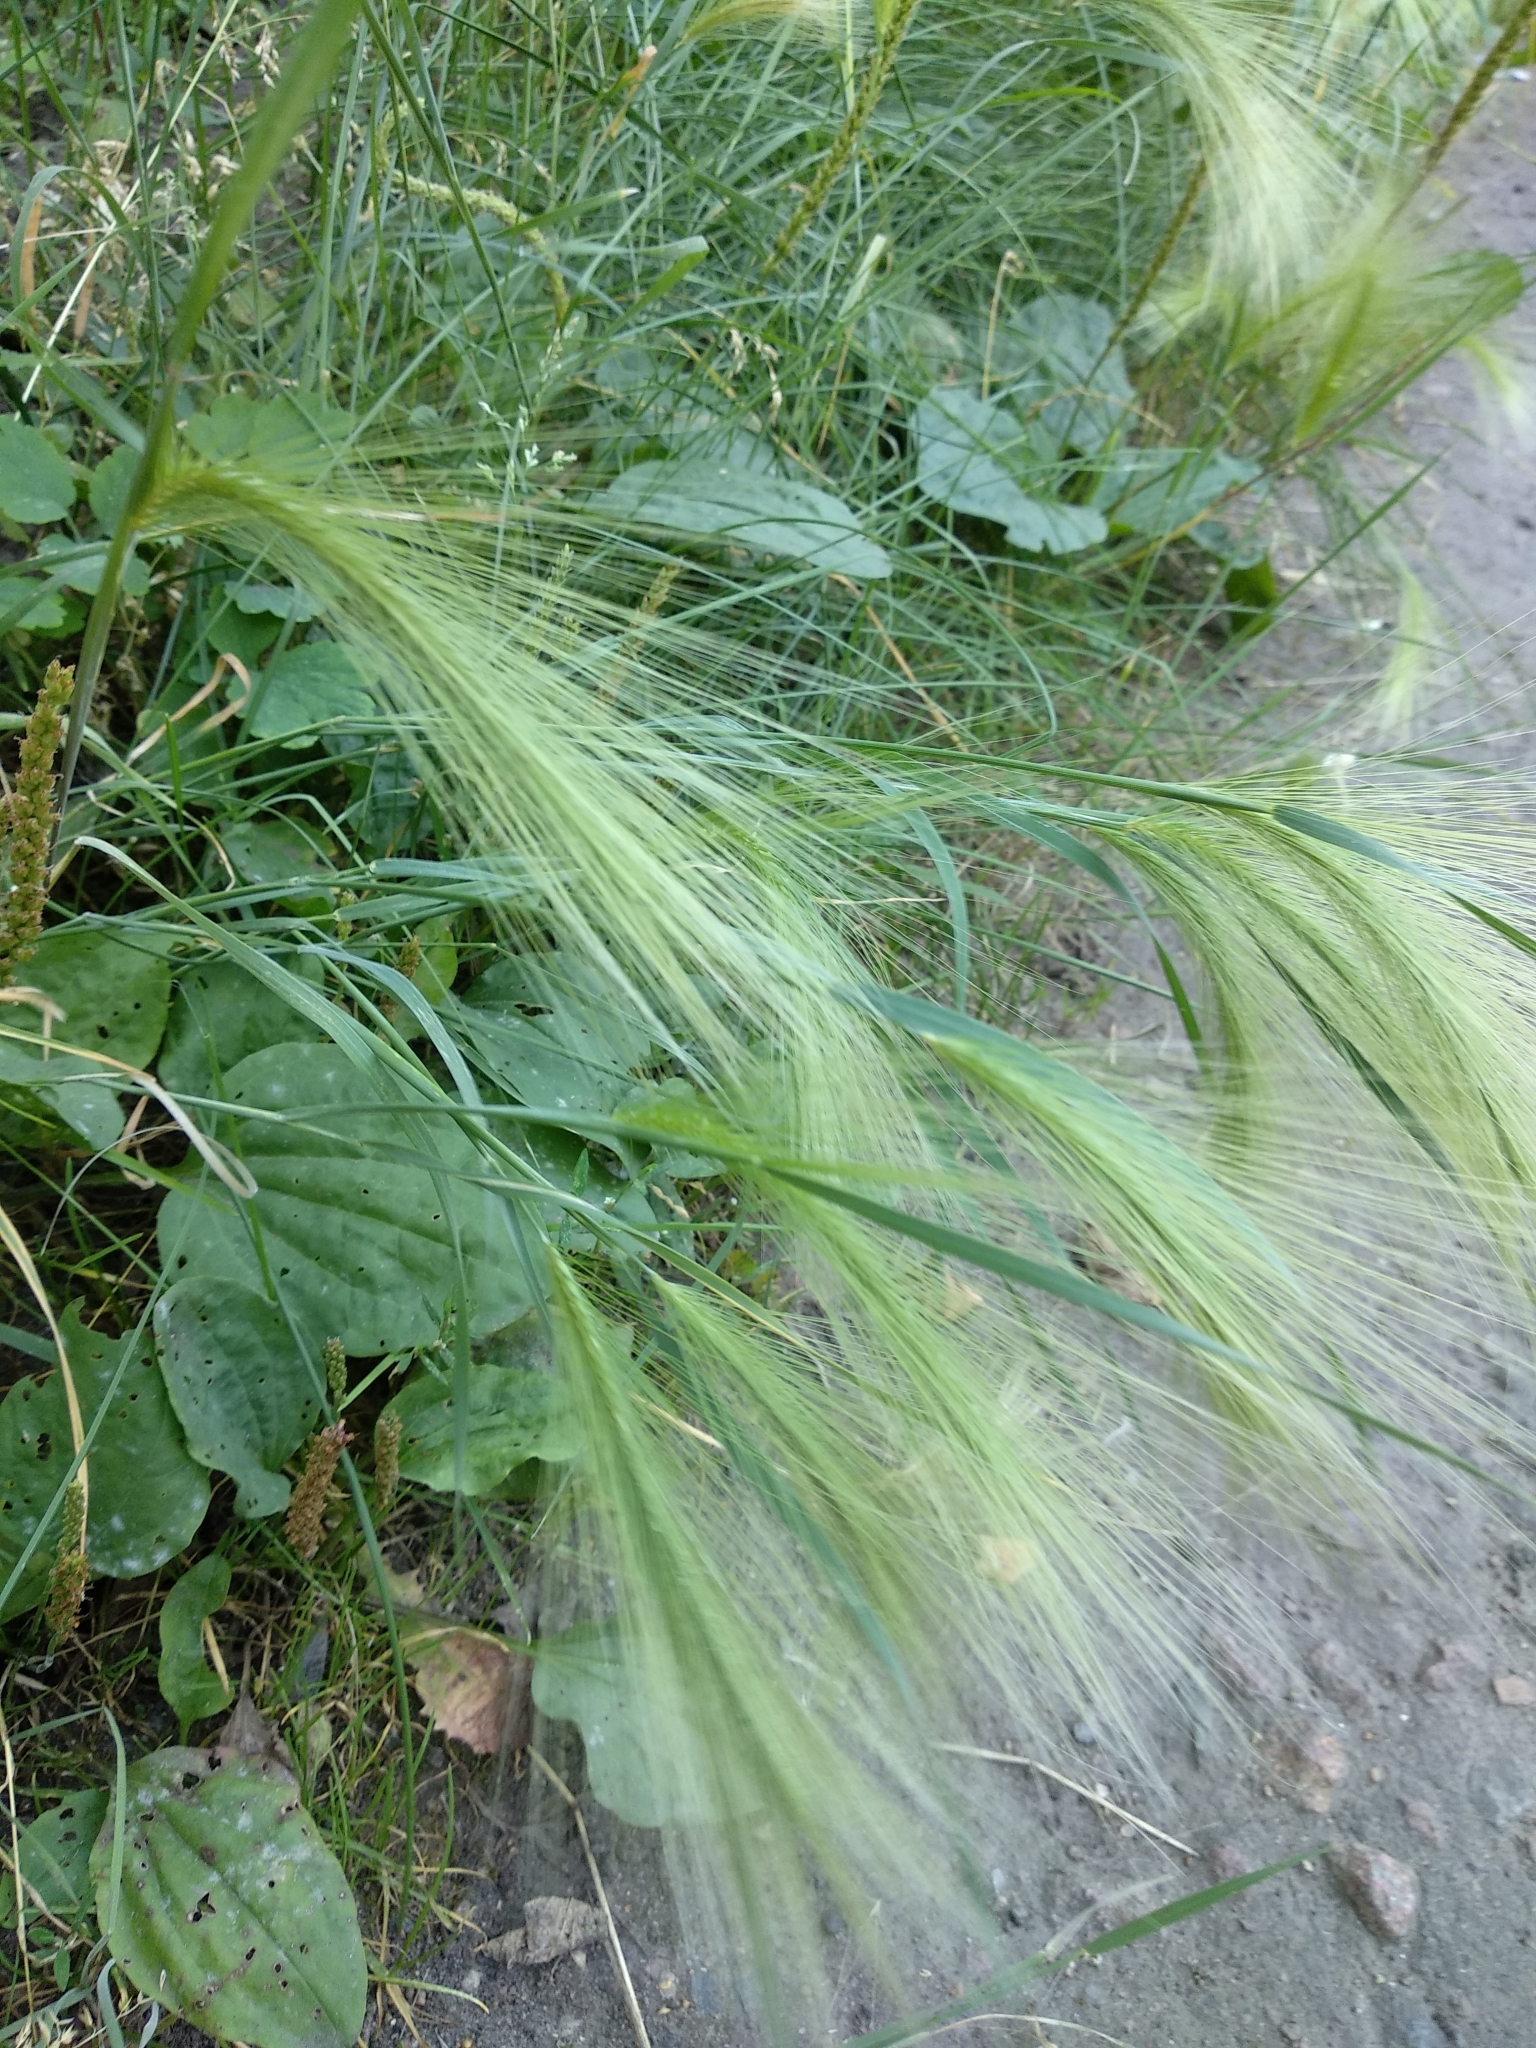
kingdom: Plantae
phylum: Tracheophyta
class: Liliopsida
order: Poales
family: Poaceae
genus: Hordeum
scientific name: Hordeum jubatum
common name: Foxtail barley
